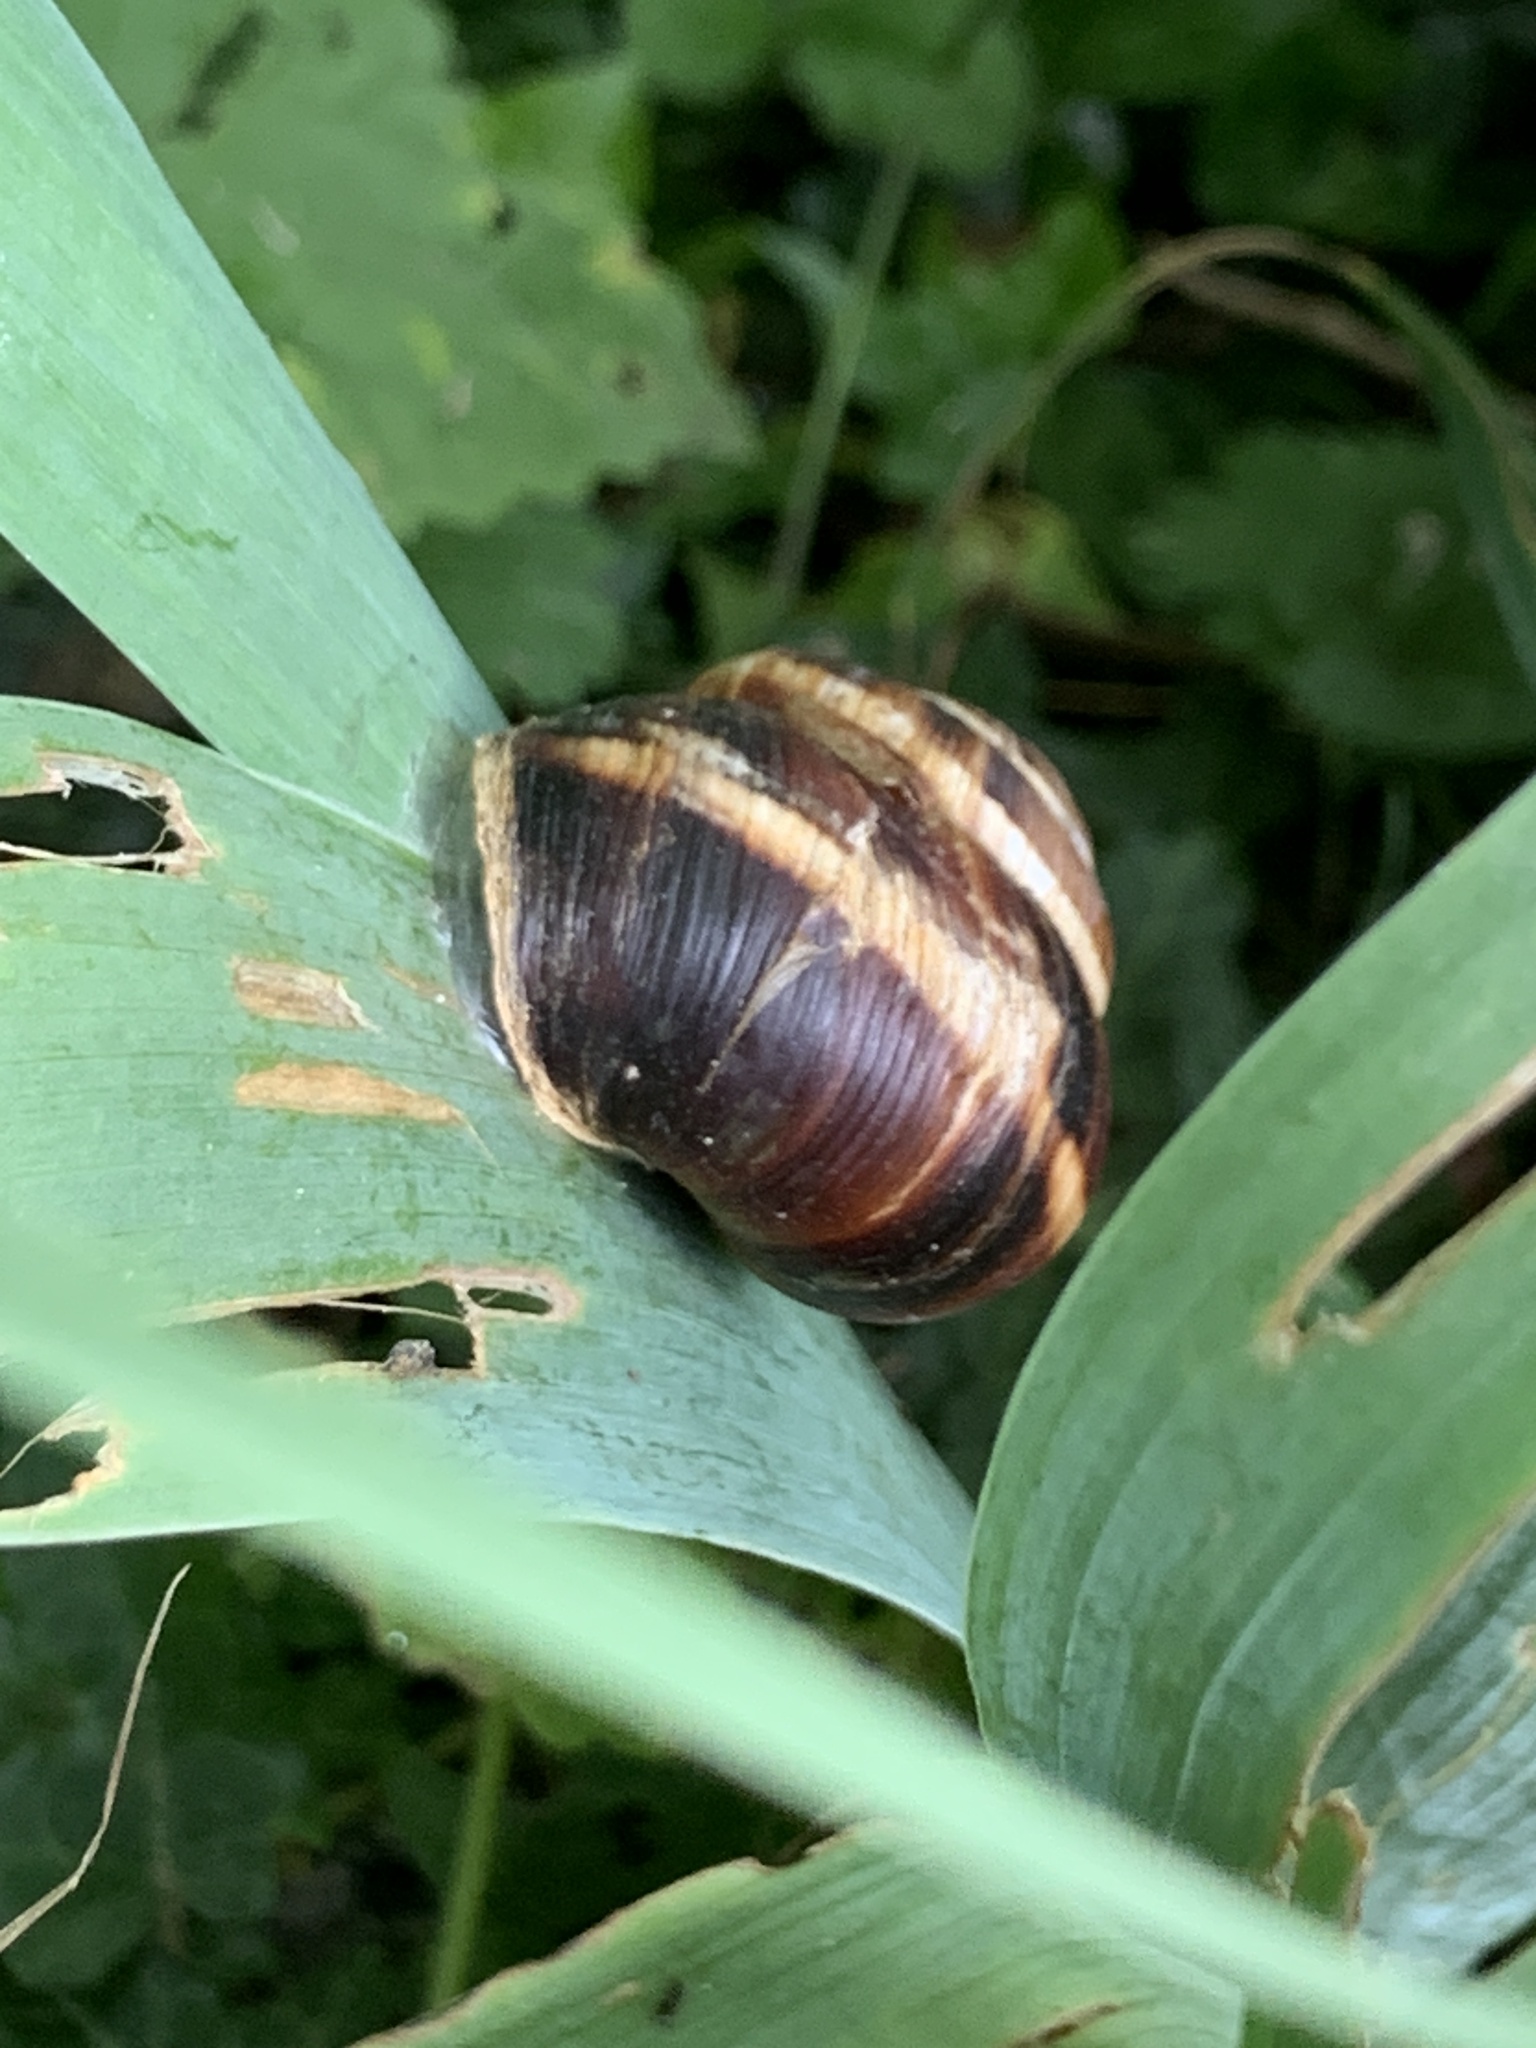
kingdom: Animalia
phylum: Mollusca
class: Gastropoda
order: Stylommatophora
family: Helicidae
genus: Helix
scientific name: Helix lucorum
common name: Turkish snail
